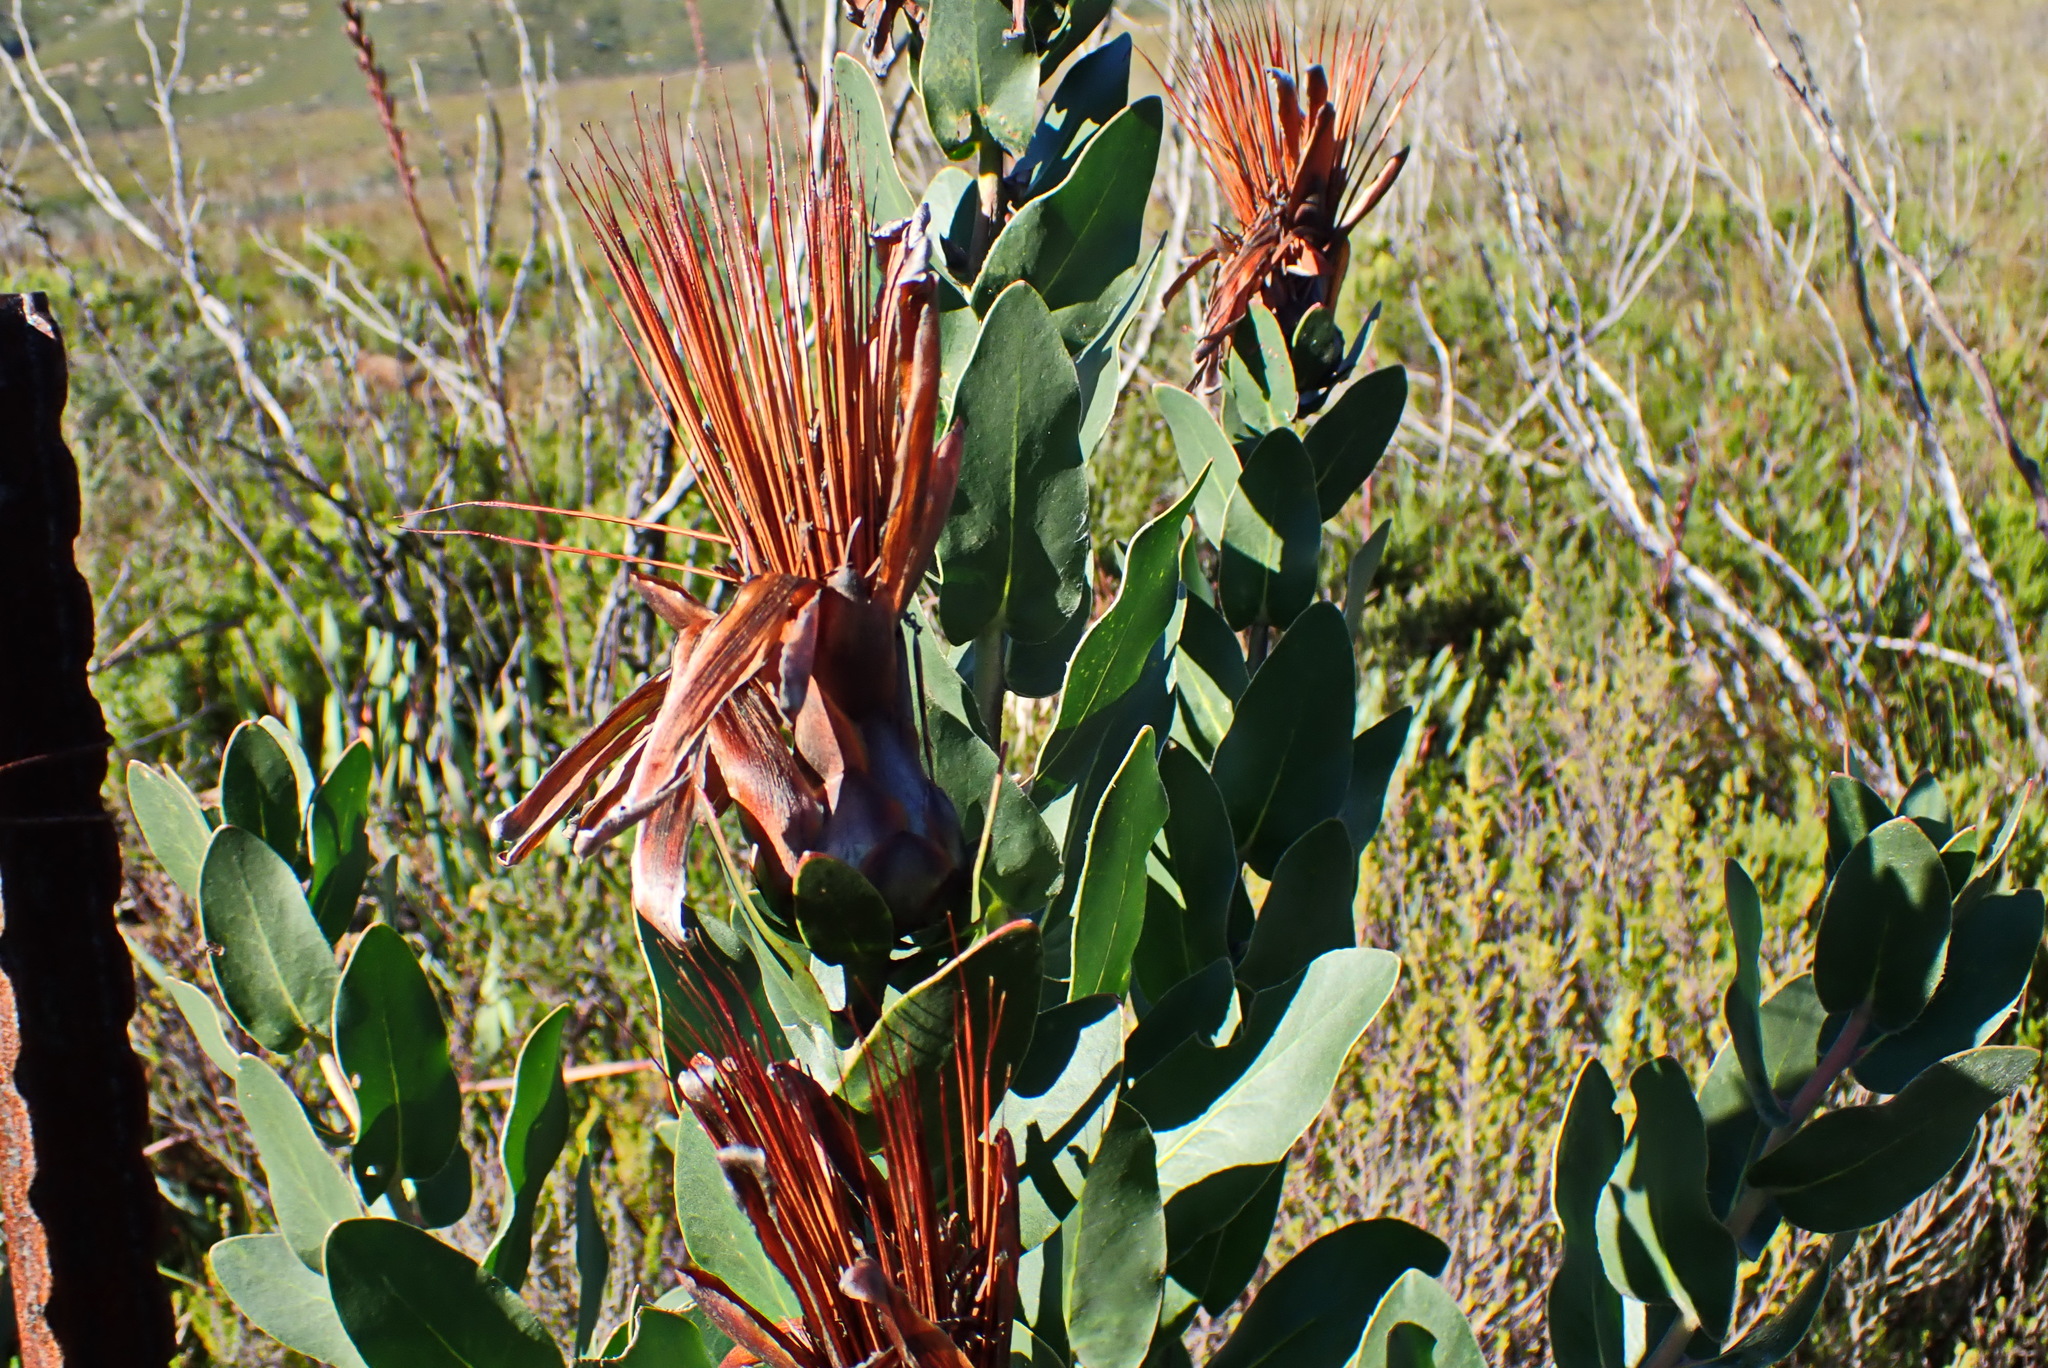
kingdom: Plantae
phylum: Tracheophyta
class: Magnoliopsida
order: Proteales
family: Proteaceae
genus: Protea
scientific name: Protea aurea
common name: Shuttlecock sugarbush
